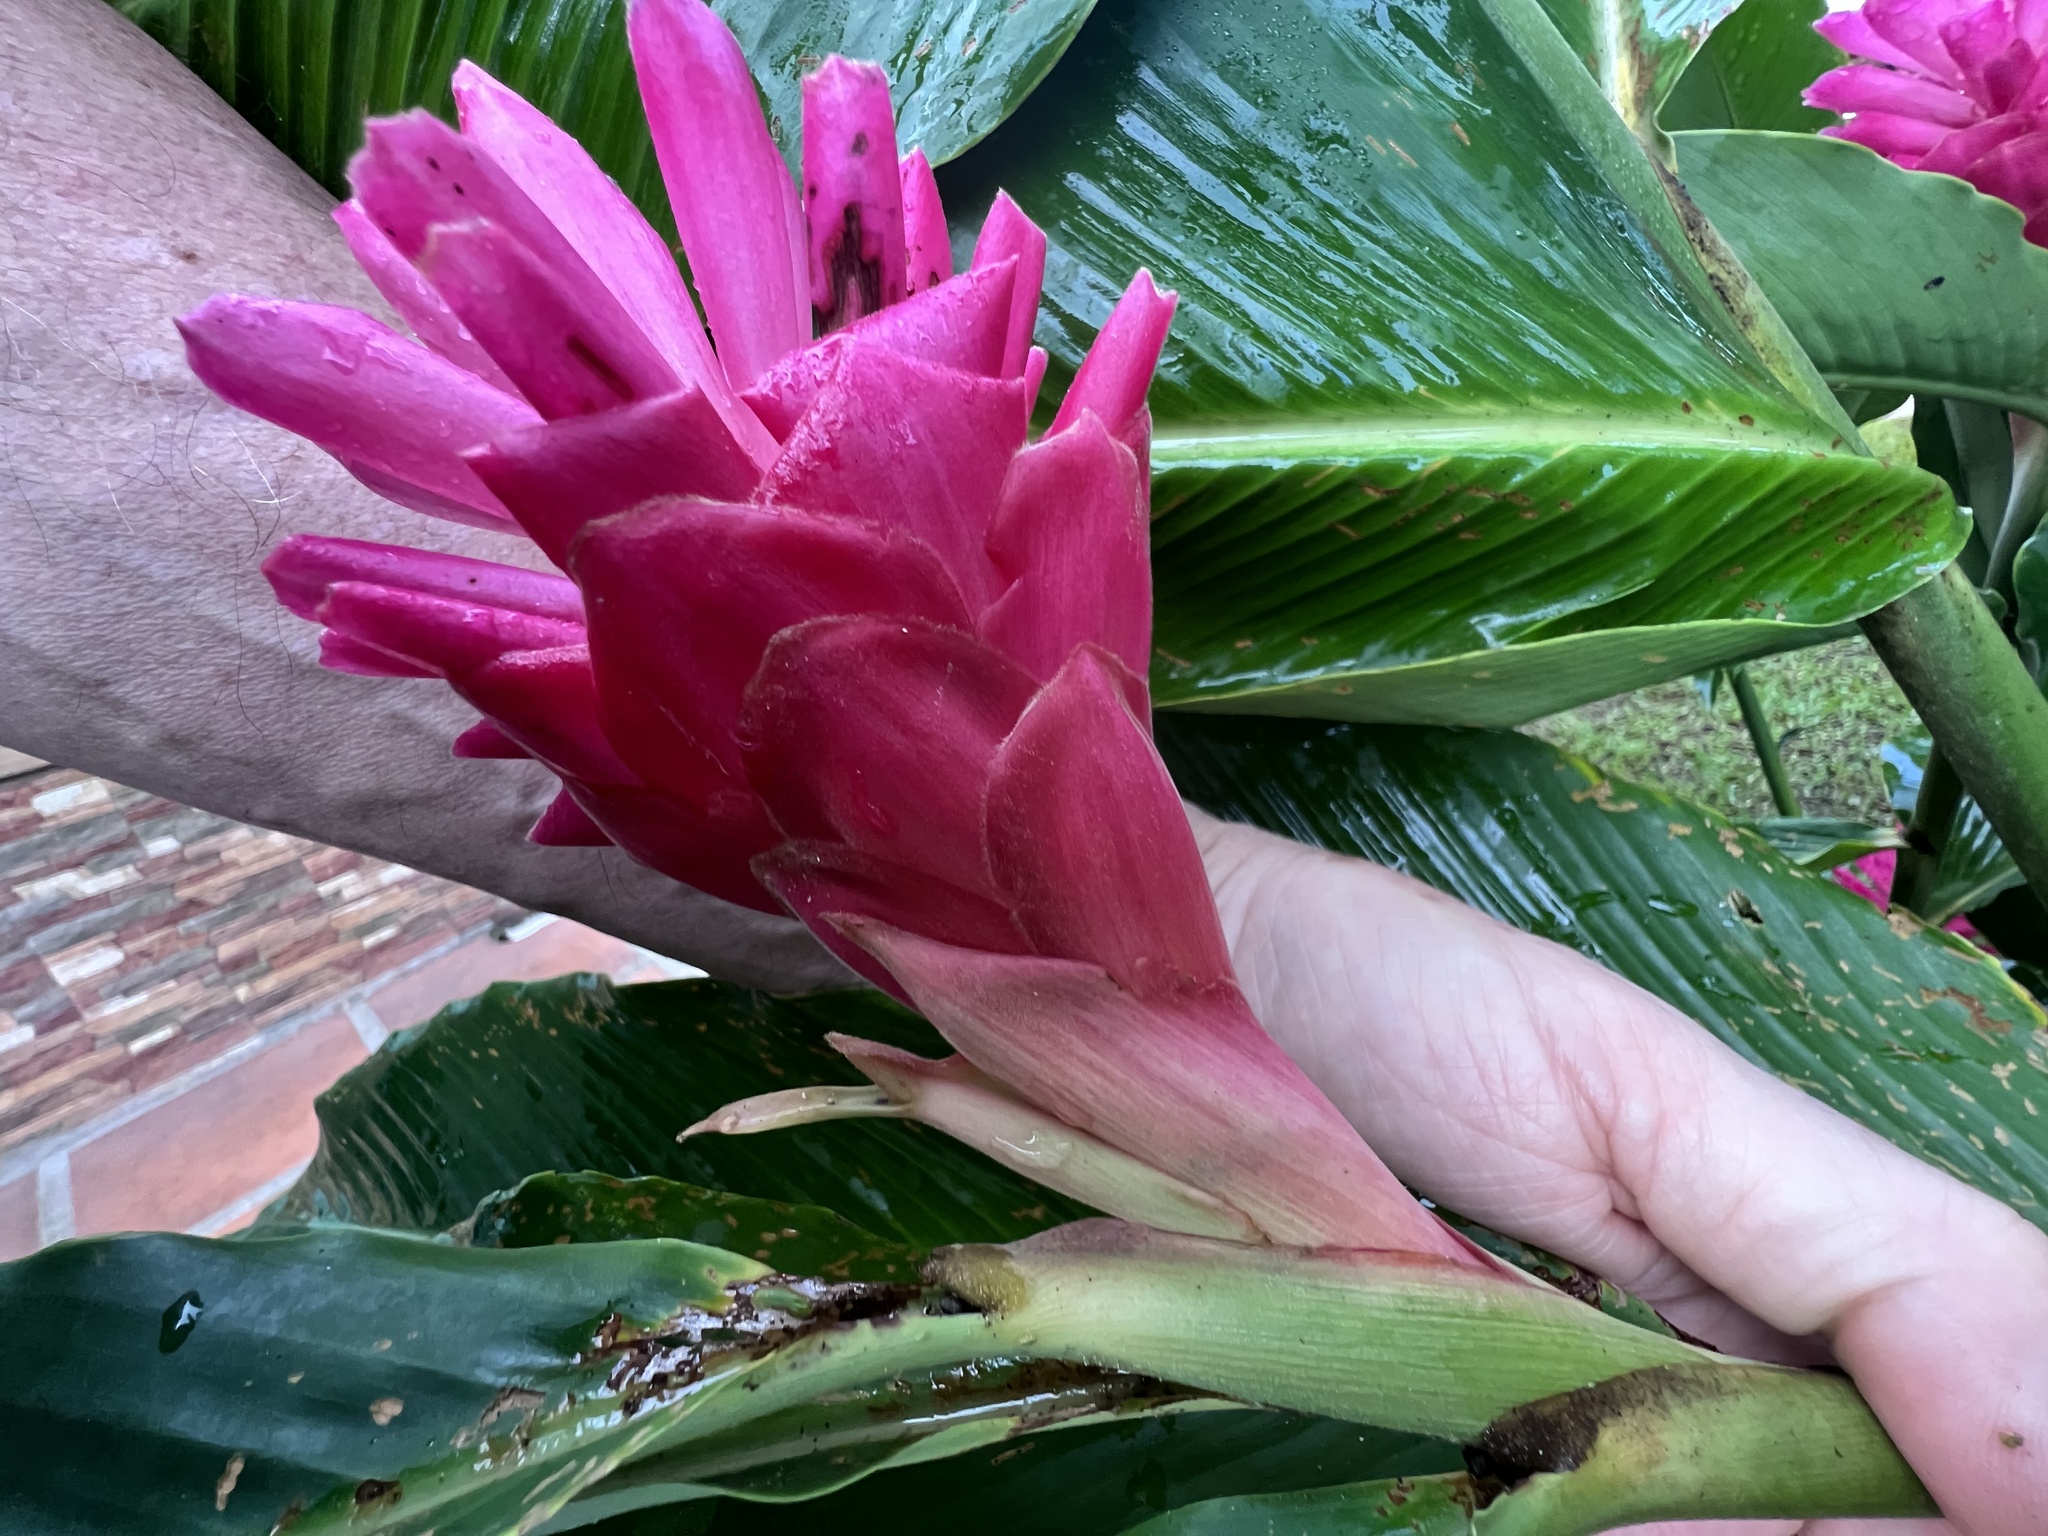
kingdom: Plantae
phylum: Tracheophyta
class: Liliopsida
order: Zingiberales
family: Zingiberaceae
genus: Alpinia
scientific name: Alpinia purpurata
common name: Red ginger
